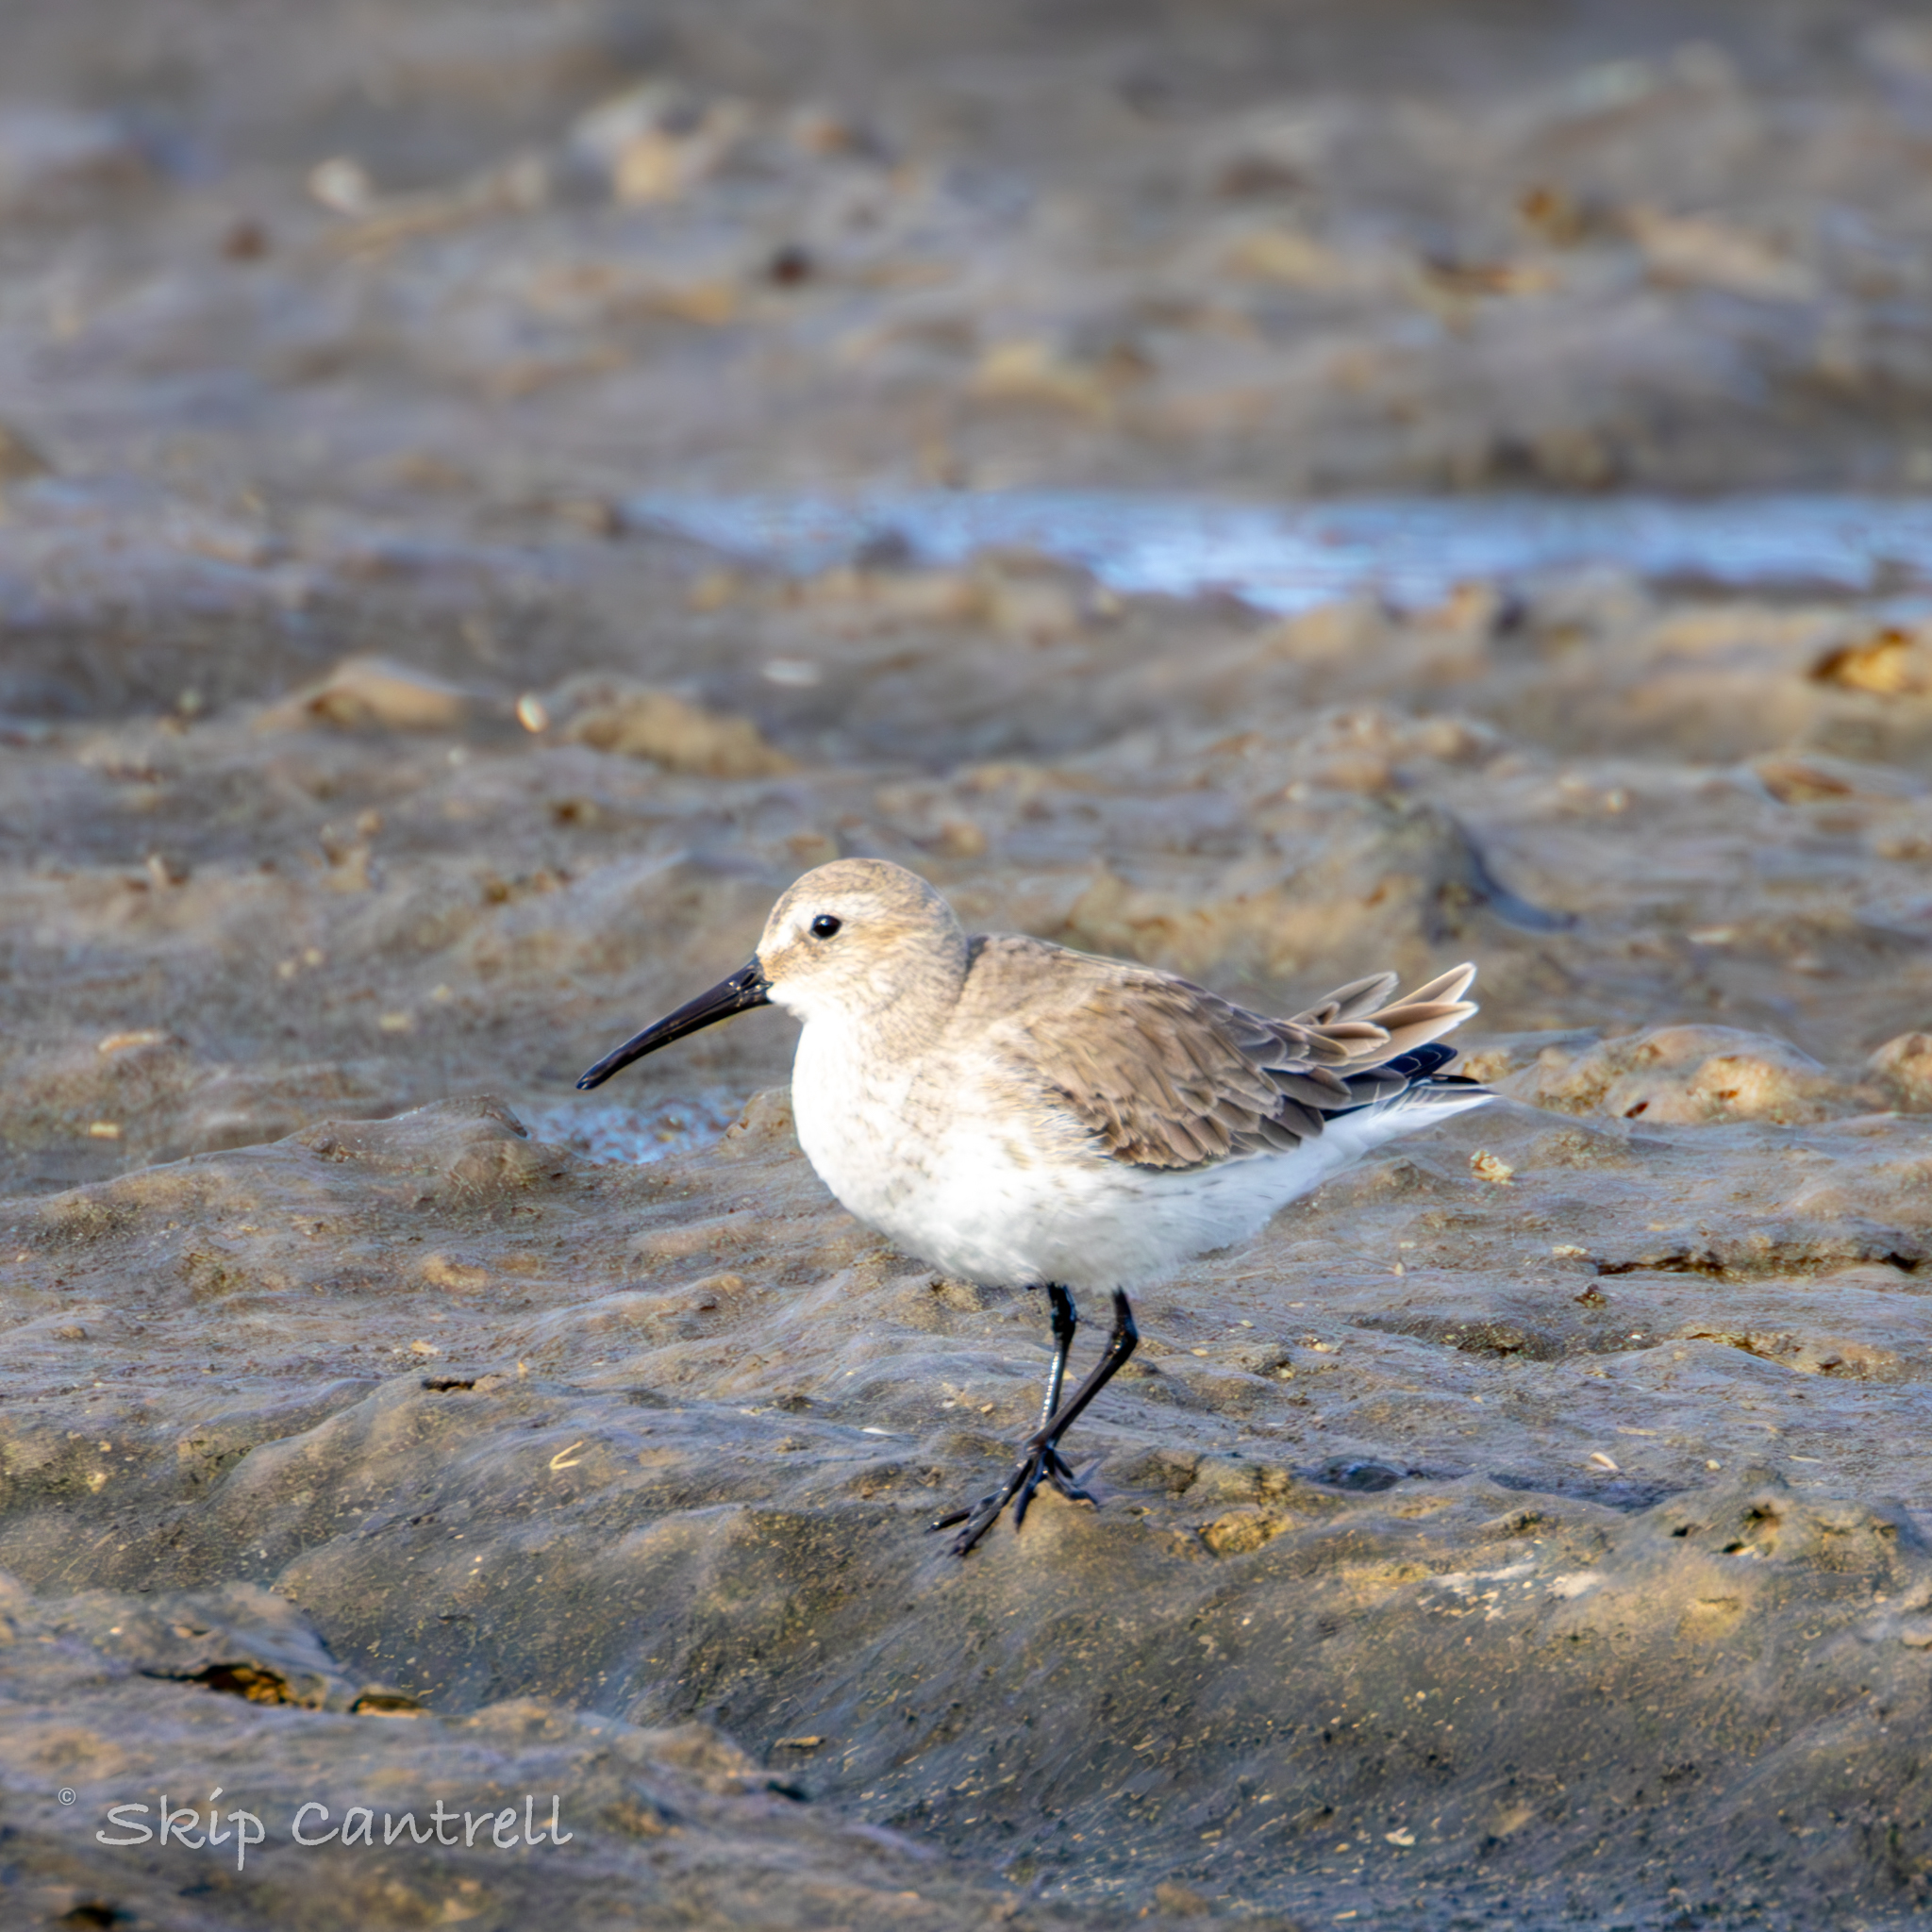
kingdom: Animalia
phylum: Chordata
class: Aves
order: Charadriiformes
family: Scolopacidae
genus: Calidris
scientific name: Calidris alpina
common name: Dunlin
